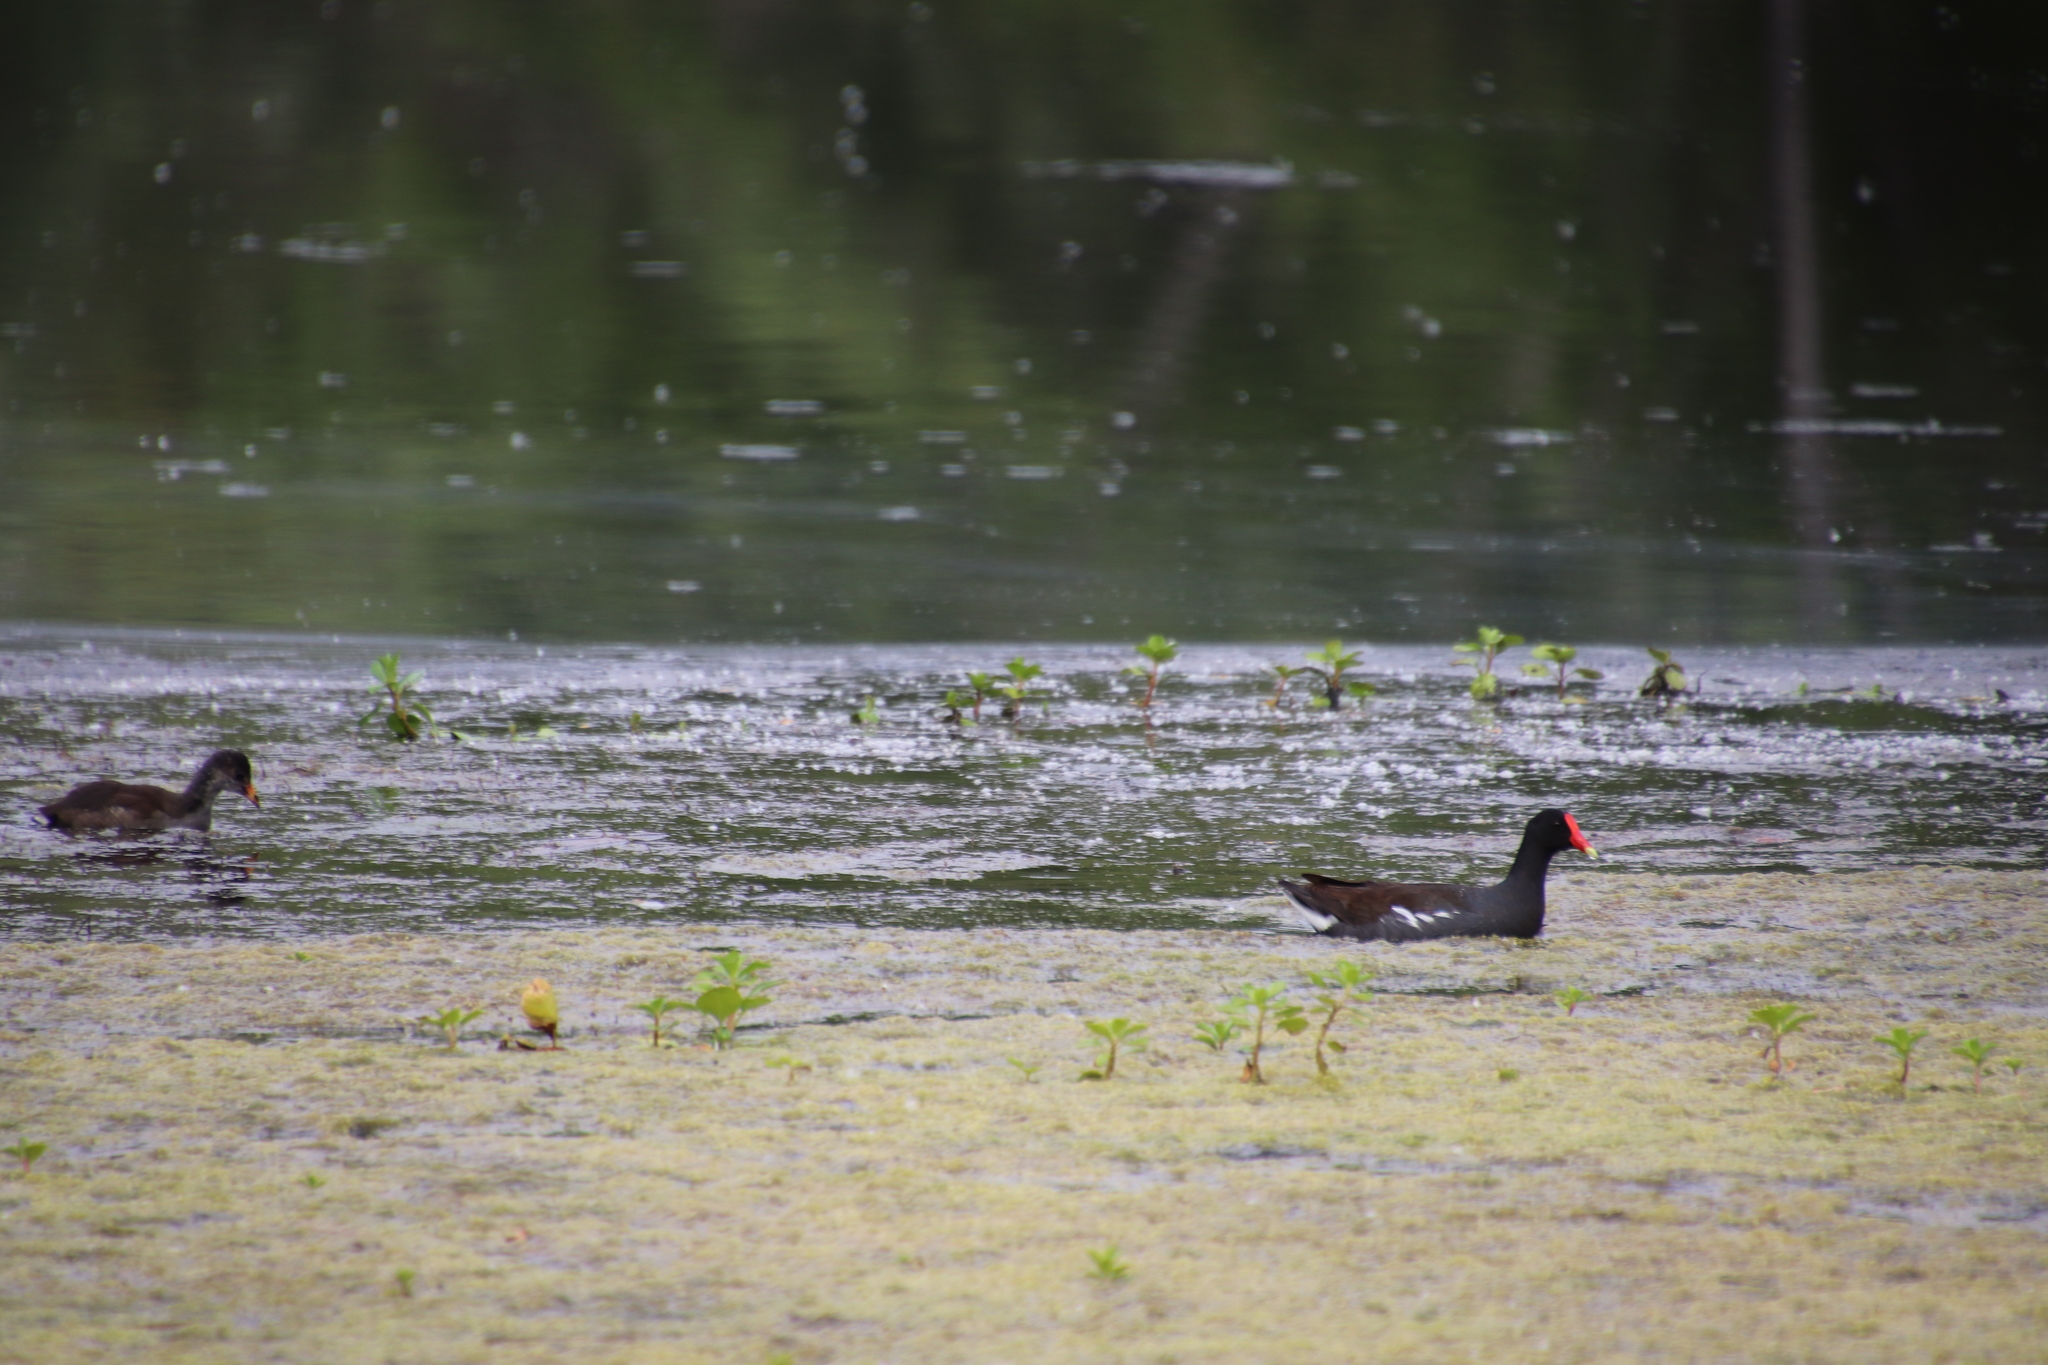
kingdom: Animalia
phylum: Chordata
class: Aves
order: Gruiformes
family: Rallidae
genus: Gallinula
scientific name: Gallinula chloropus
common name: Common moorhen
